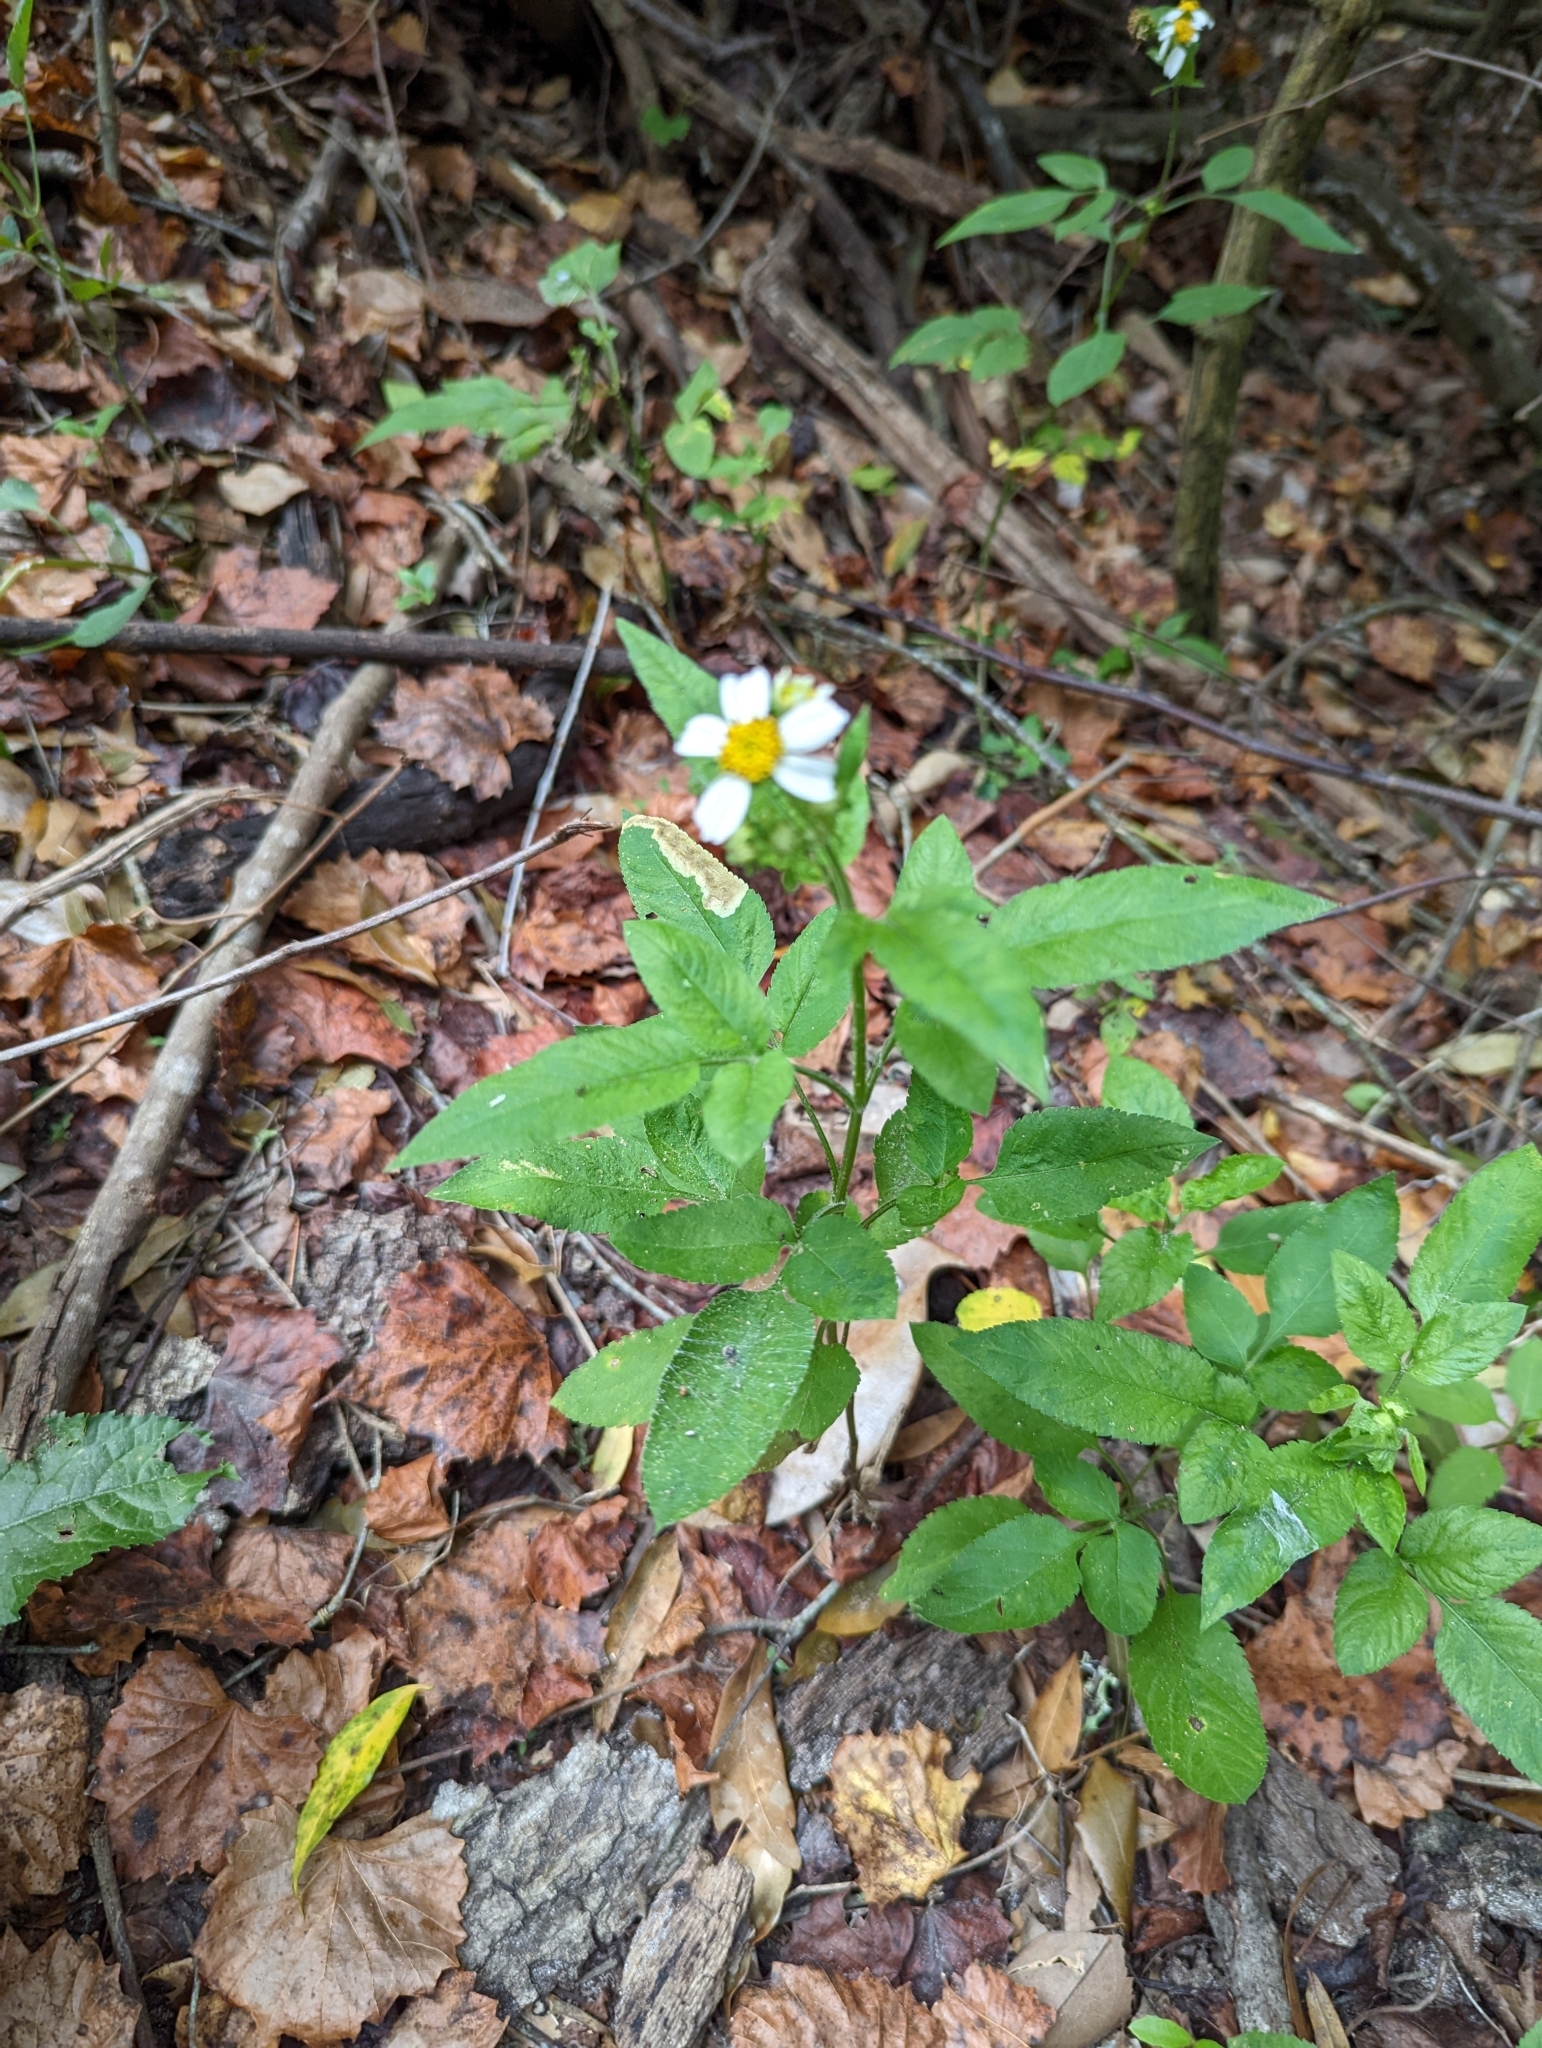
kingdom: Plantae
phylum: Tracheophyta
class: Magnoliopsida
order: Asterales
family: Asteraceae
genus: Bidens
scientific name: Bidens alba
